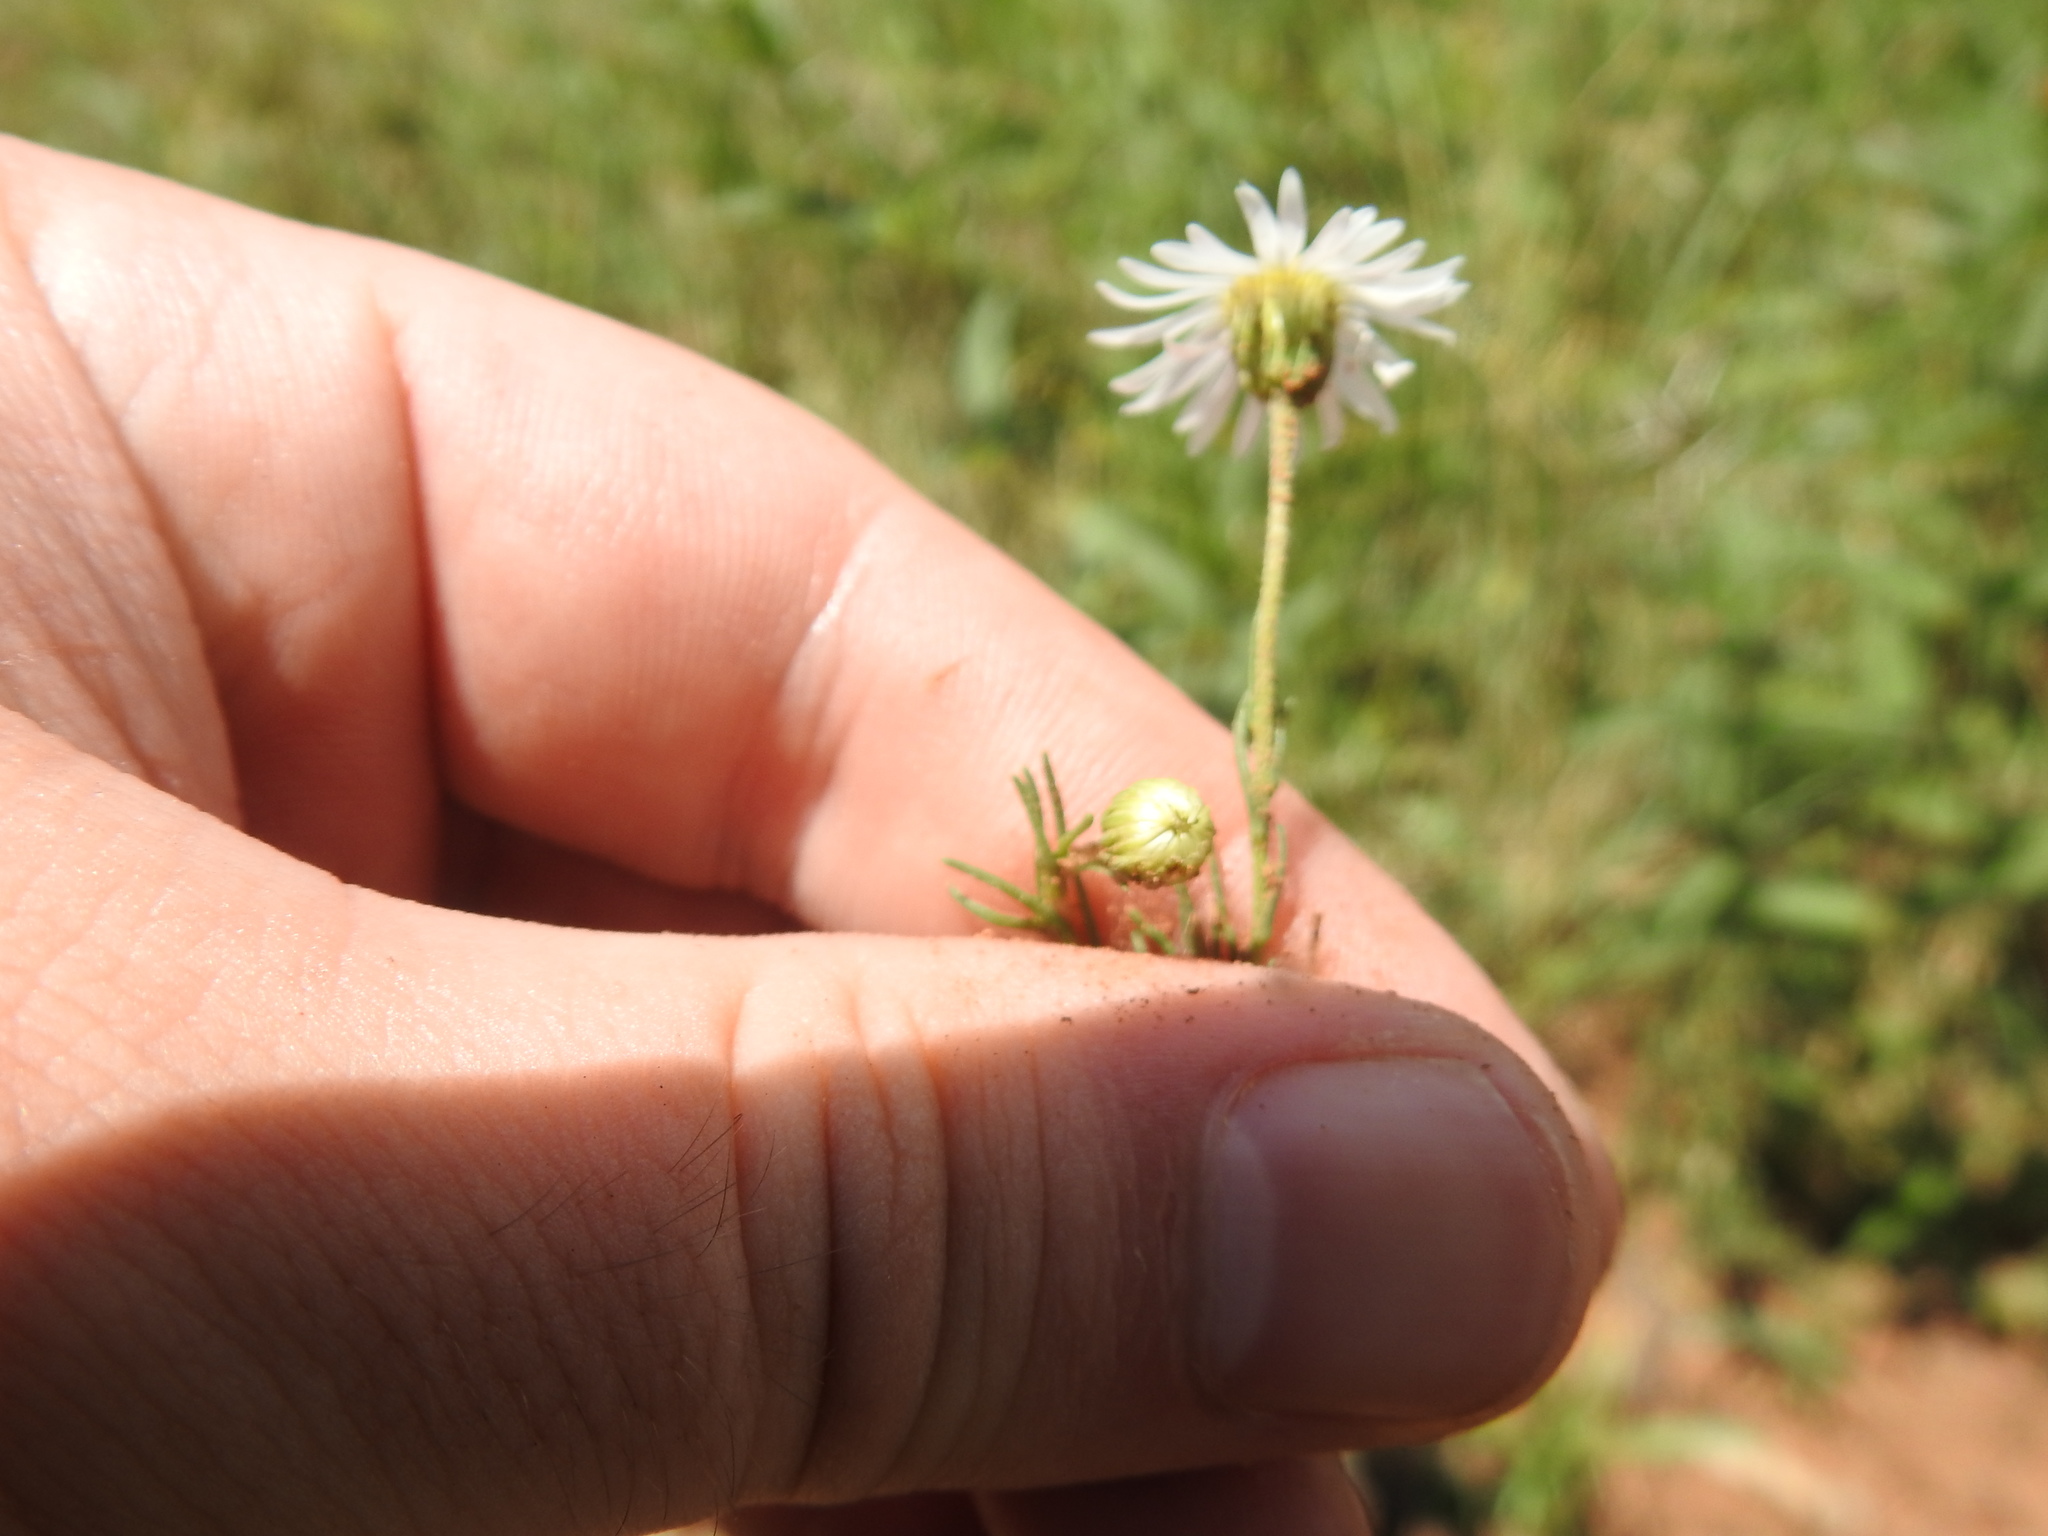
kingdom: Plantae
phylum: Tracheophyta
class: Magnoliopsida
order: Asterales
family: Asteraceae
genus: Felicia
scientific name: Felicia muricata
